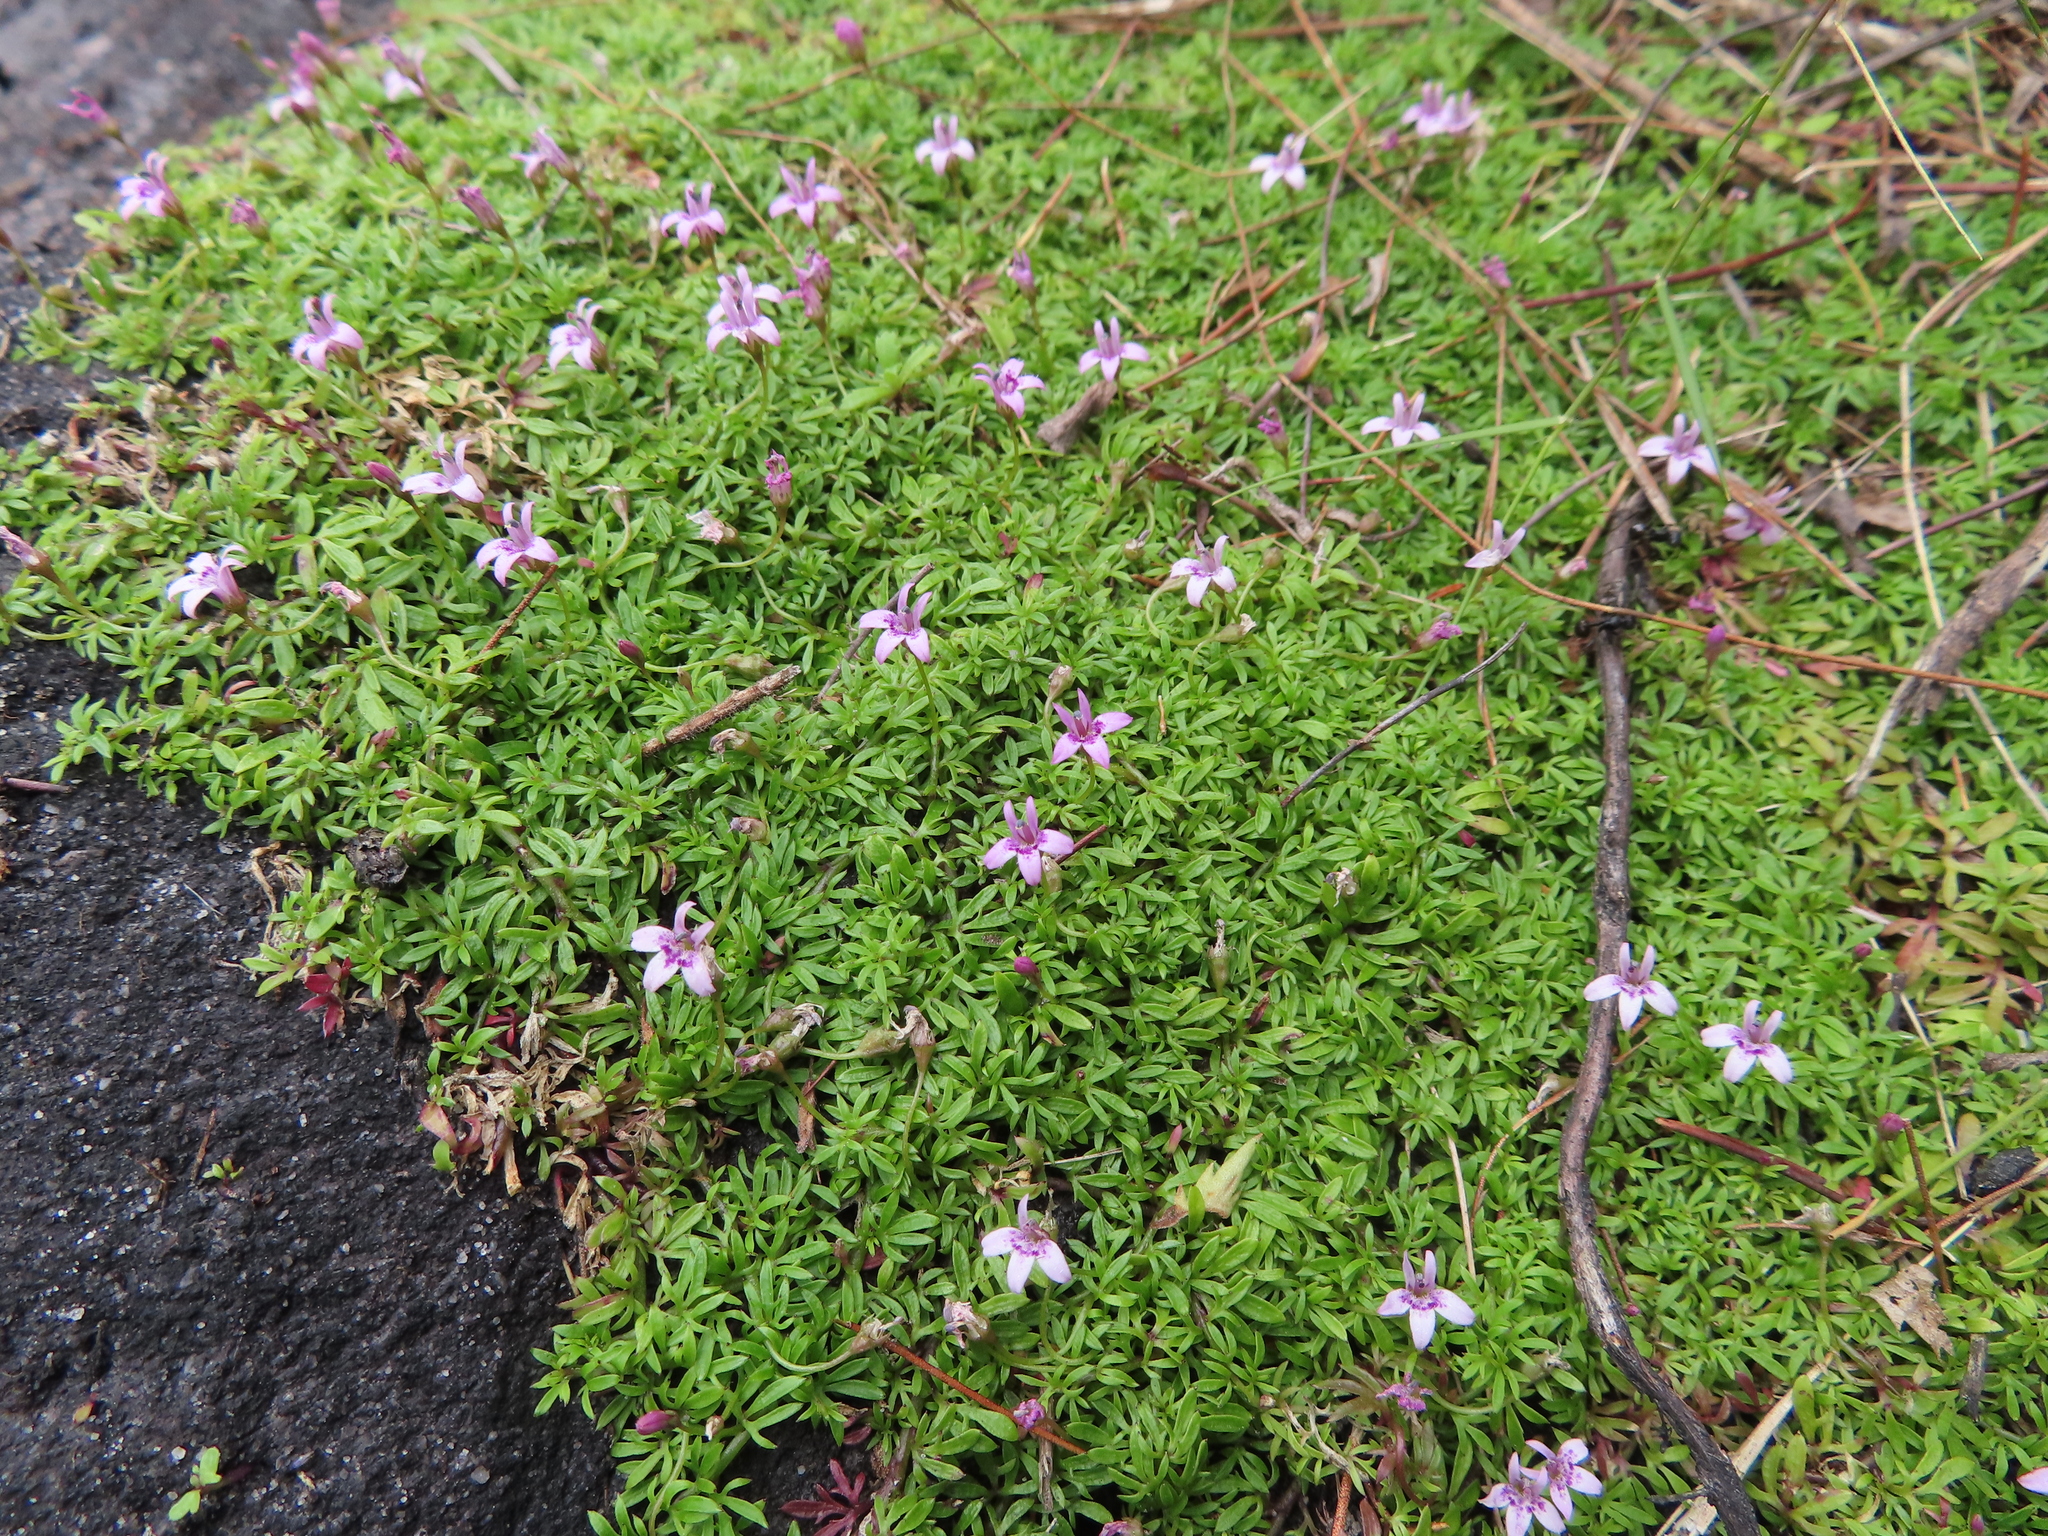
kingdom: Plantae
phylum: Tracheophyta
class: Magnoliopsida
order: Asterales
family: Campanulaceae
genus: Lobelia
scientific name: Lobelia muscoides
